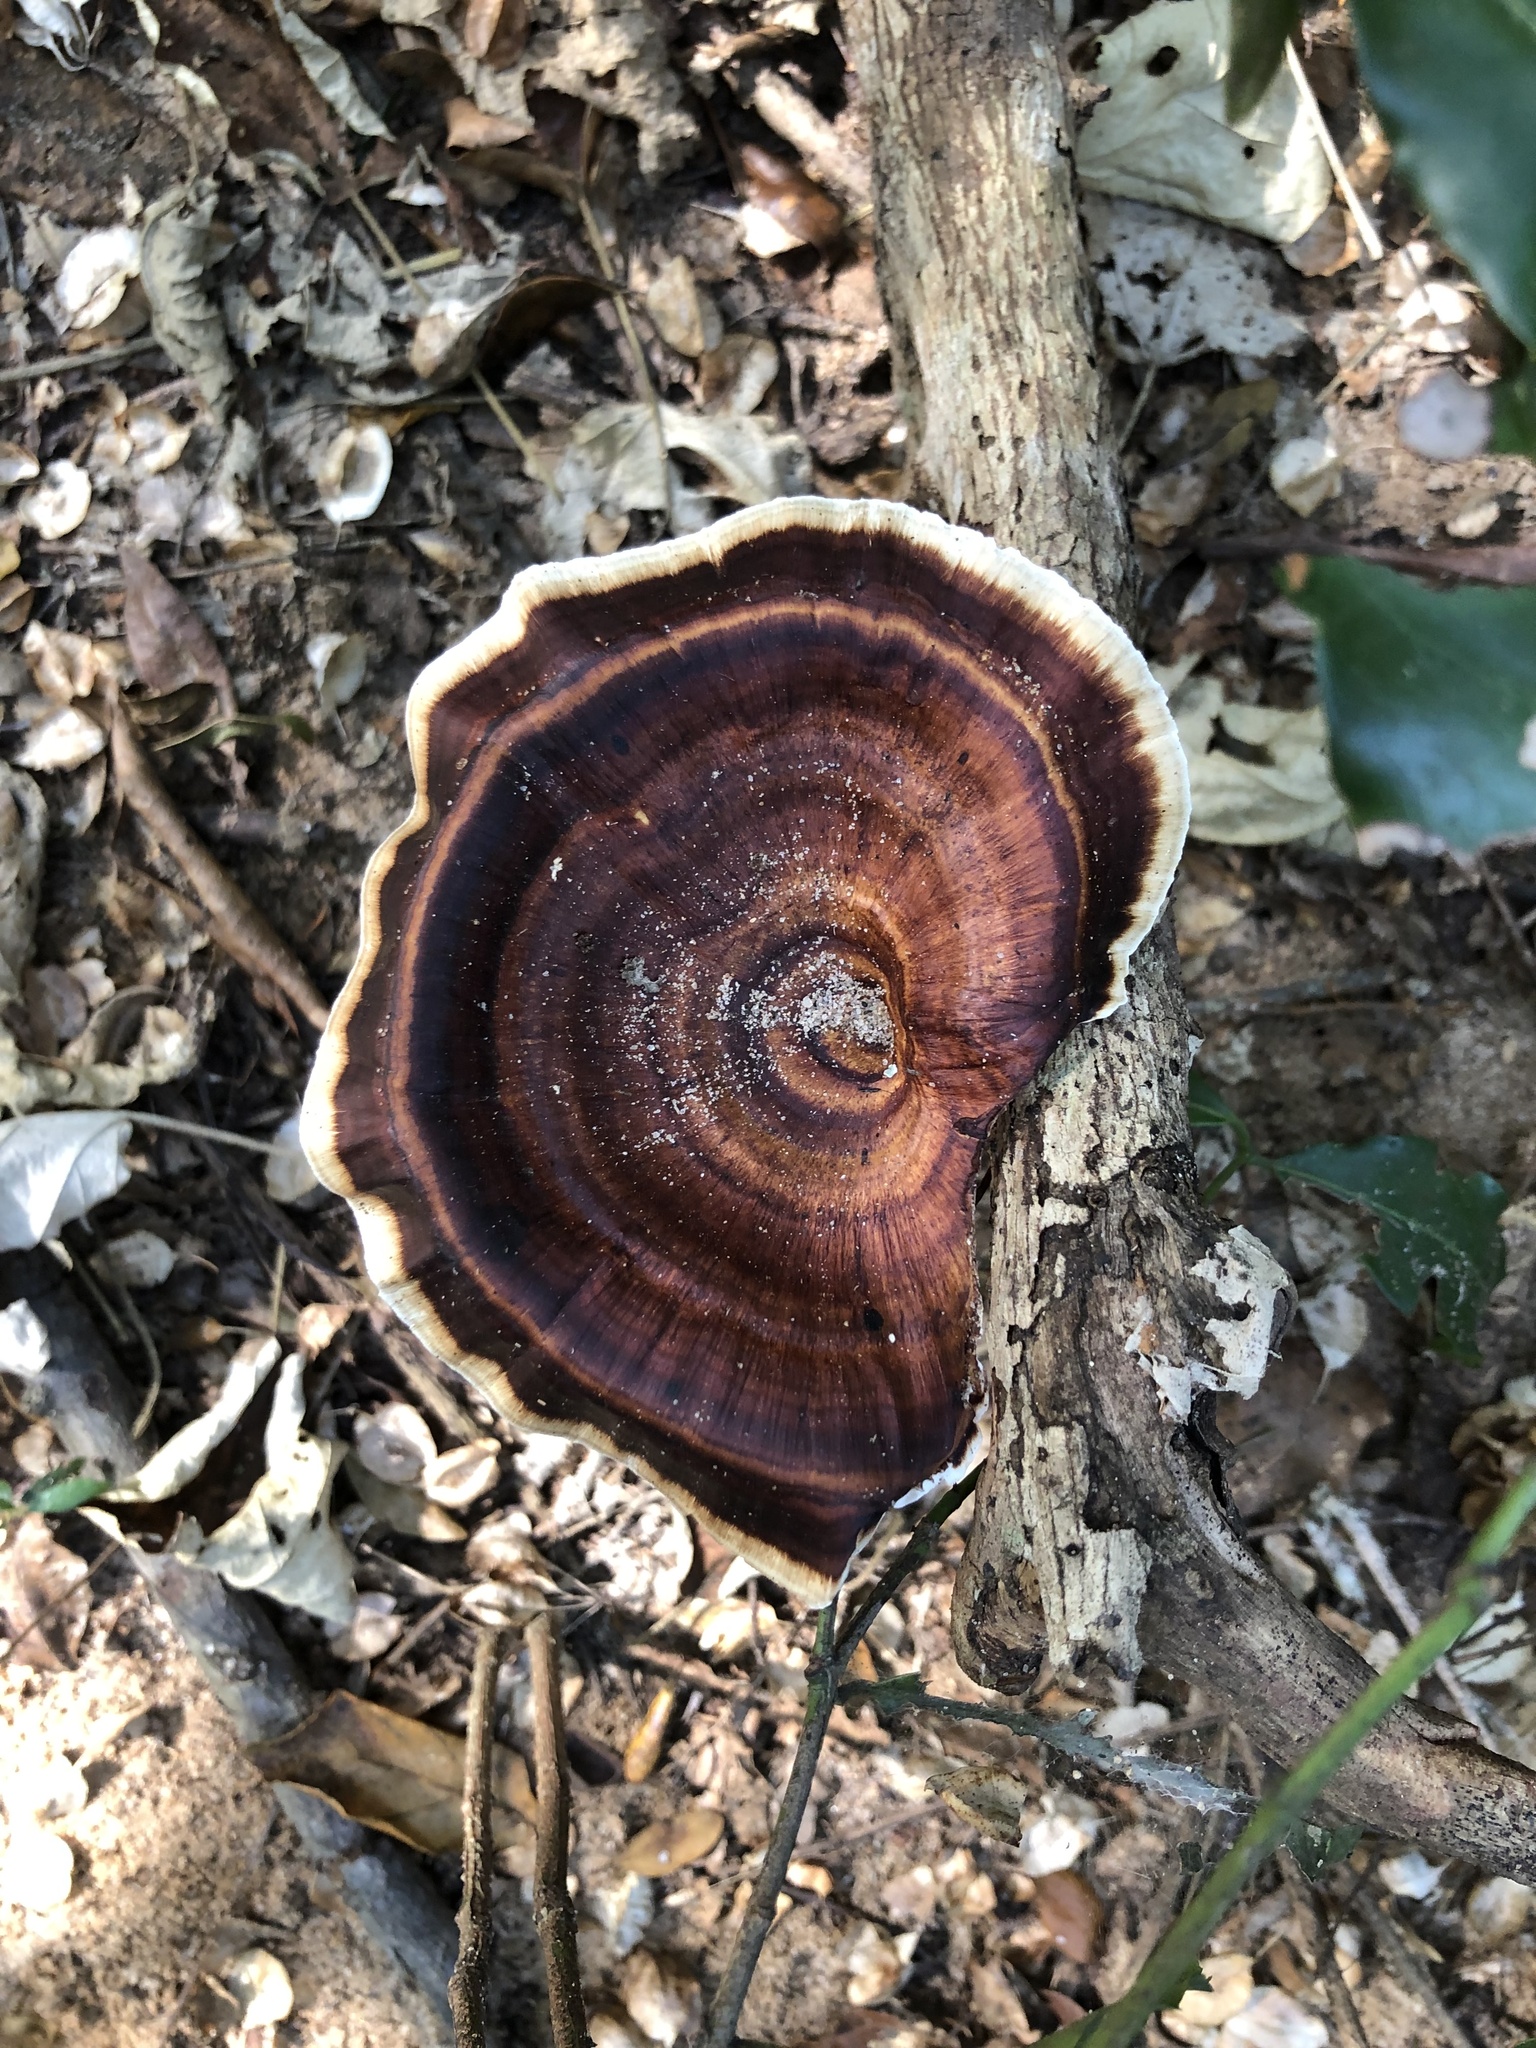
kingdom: Fungi
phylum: Basidiomycota
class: Agaricomycetes
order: Polyporales
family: Polyporaceae
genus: Microporus
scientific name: Microporus xanthopus
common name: Yellow-stemmed micropore
